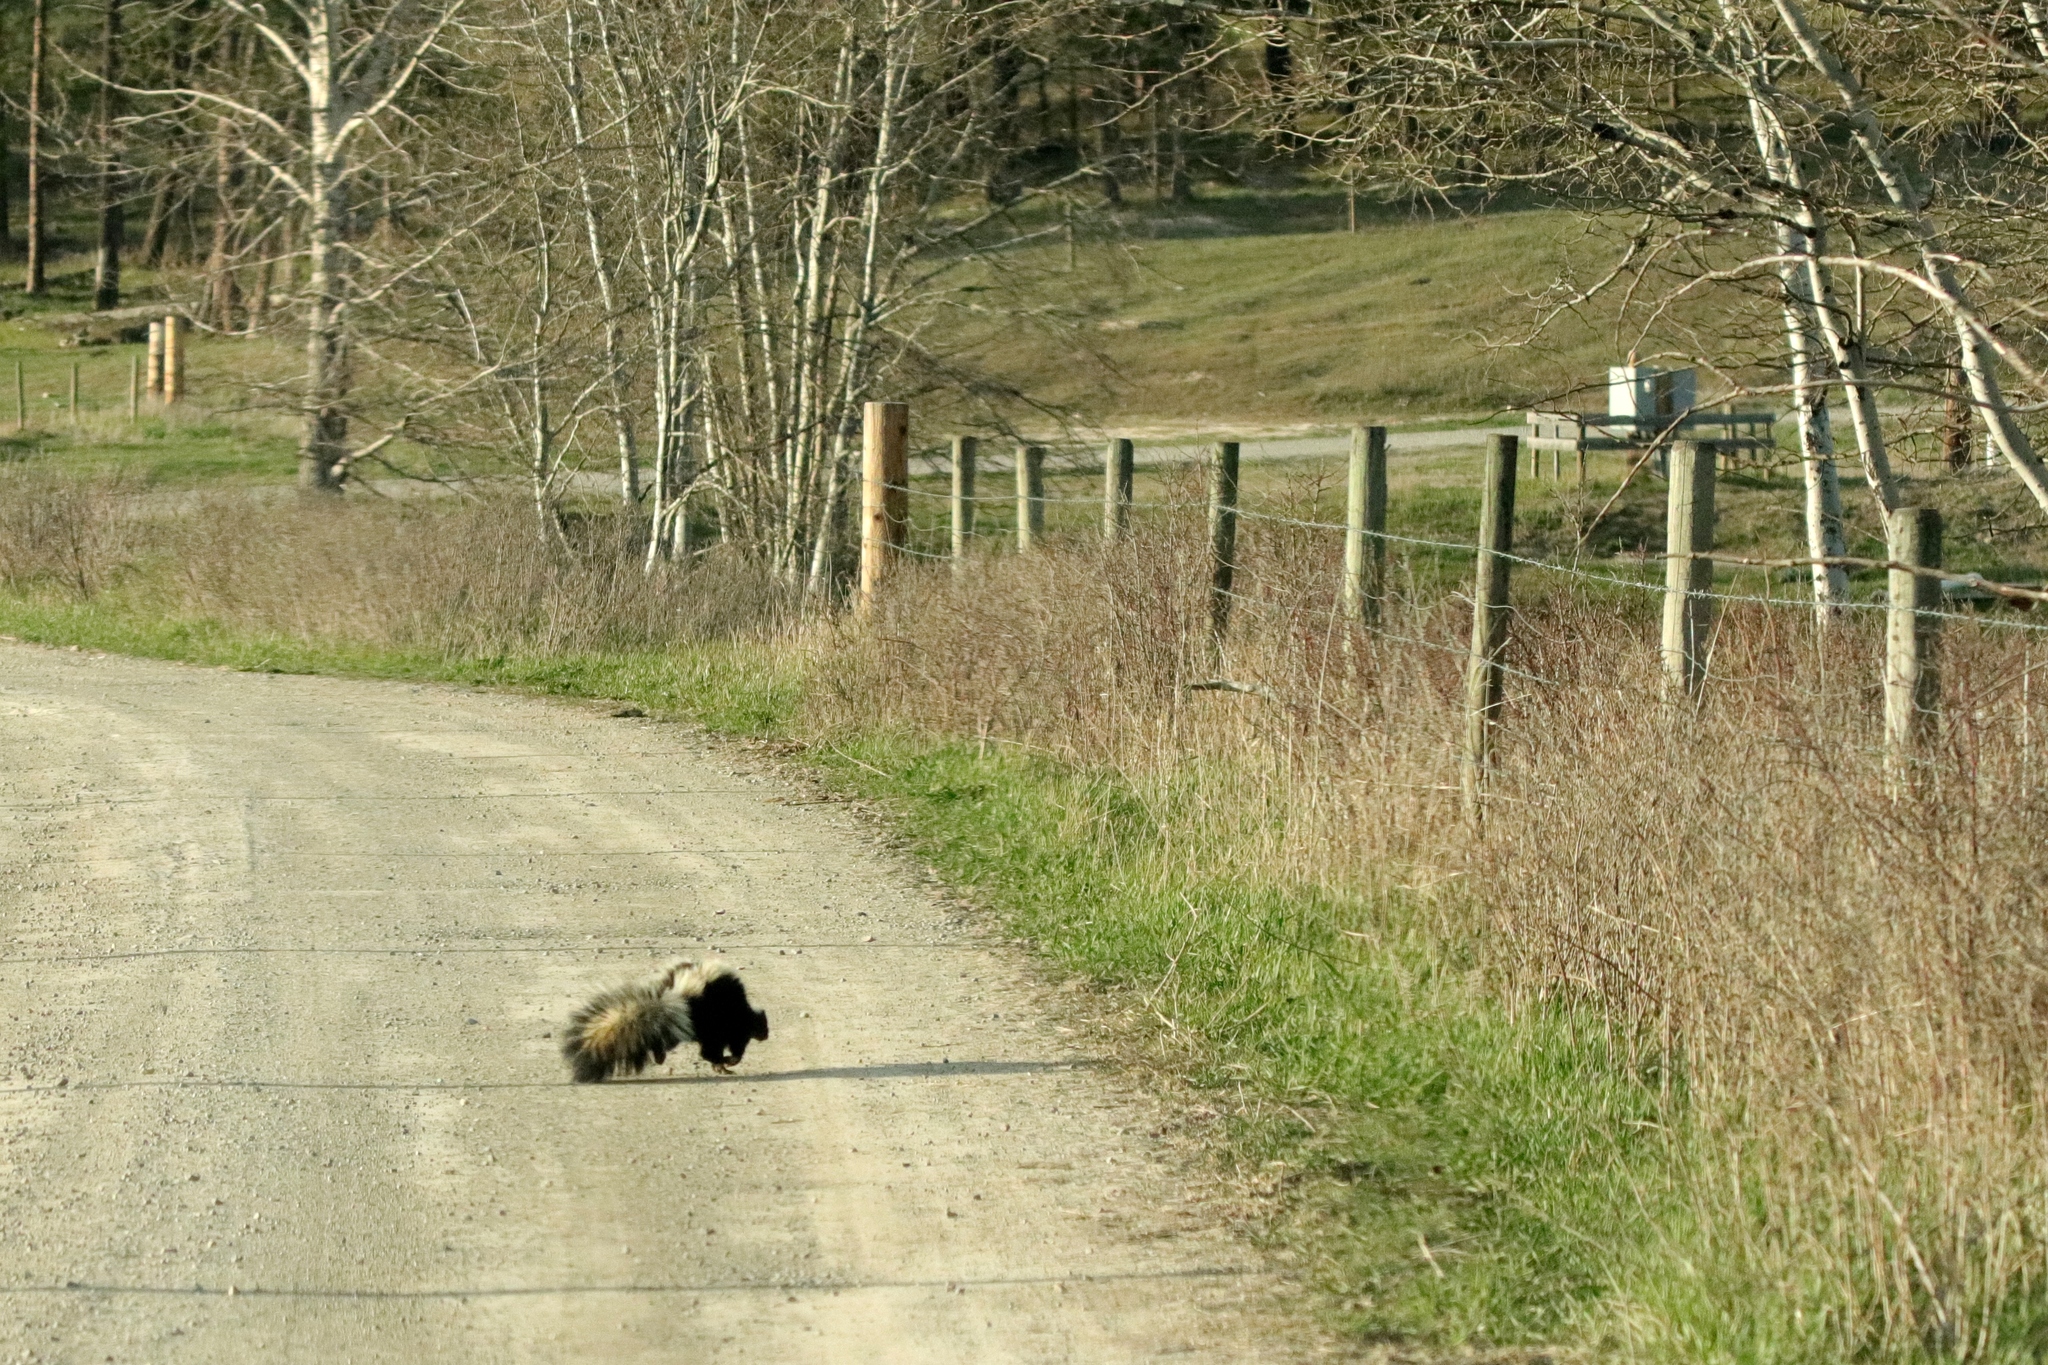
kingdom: Animalia
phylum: Chordata
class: Mammalia
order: Carnivora
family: Mephitidae
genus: Mephitis
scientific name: Mephitis mephitis
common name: Striped skunk
